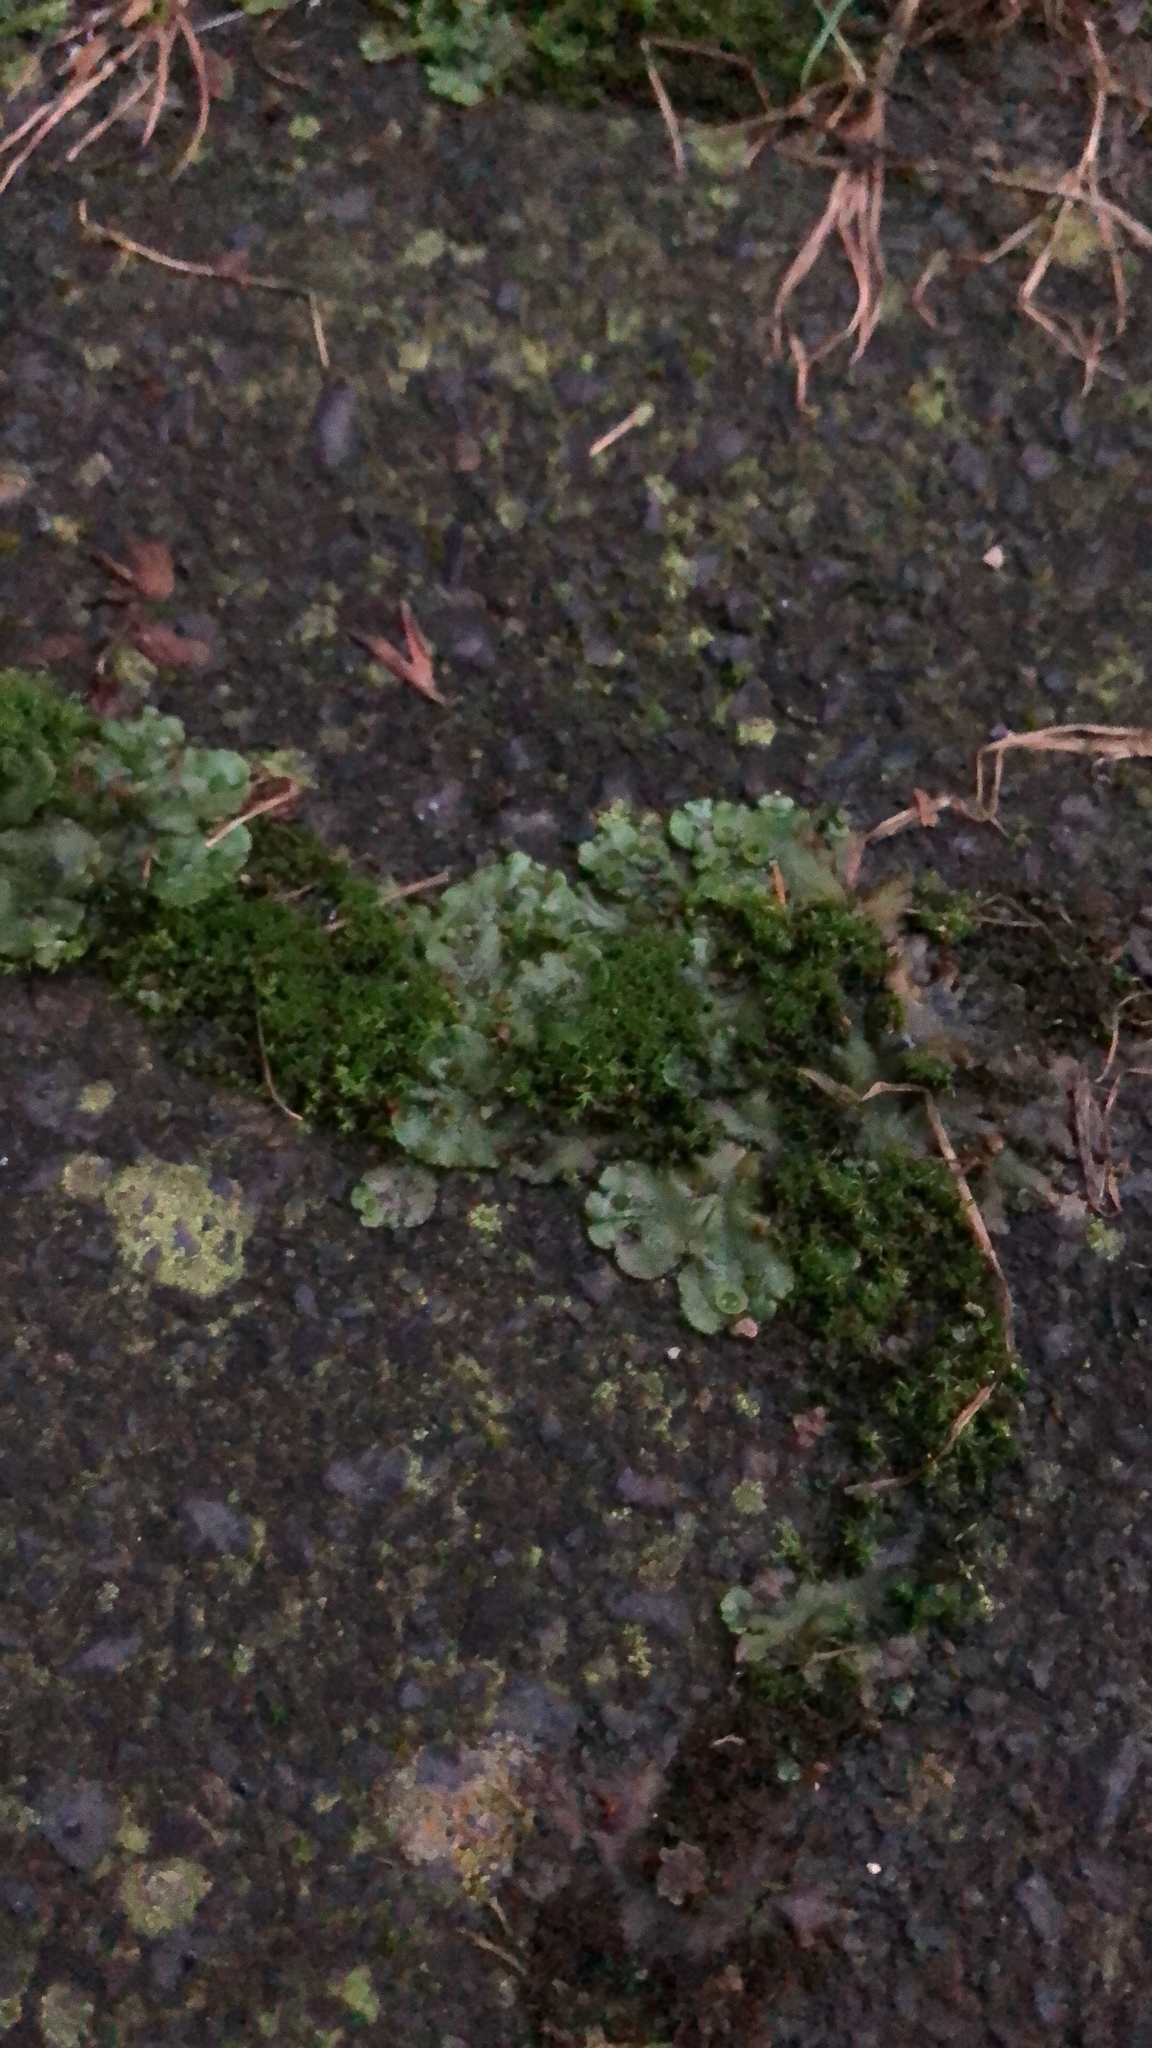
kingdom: Plantae
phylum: Marchantiophyta
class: Marchantiopsida
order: Marchantiales
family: Marchantiaceae
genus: Marchantia
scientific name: Marchantia polymorpha
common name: Common liverwort
